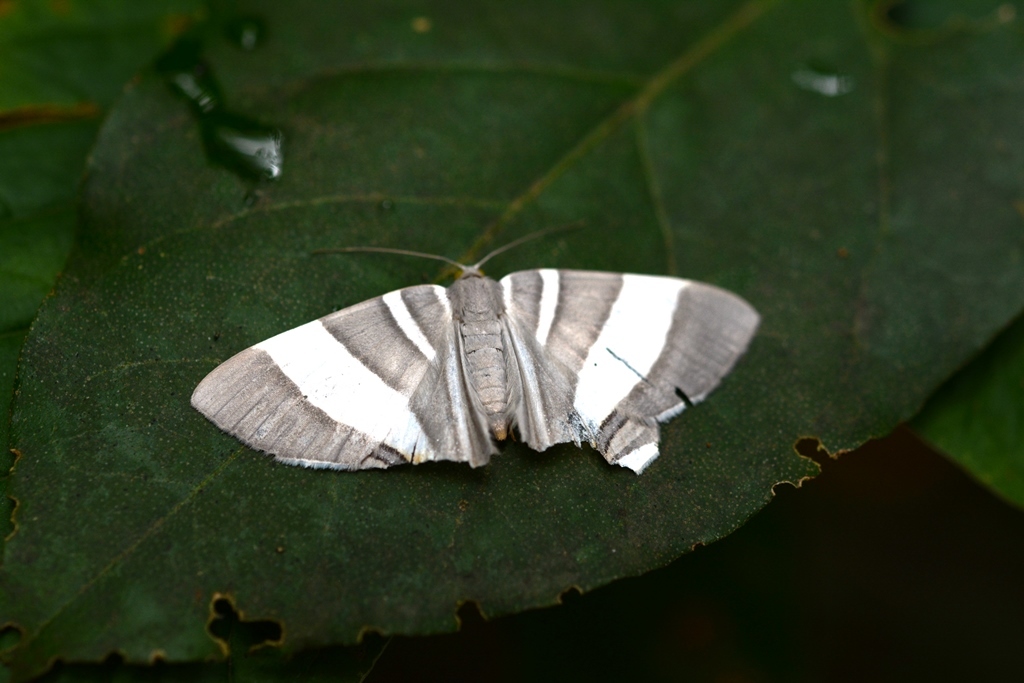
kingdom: Animalia
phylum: Arthropoda
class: Insecta
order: Lepidoptera
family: Geometridae
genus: Opisthoxia
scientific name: Opisthoxia miletia
